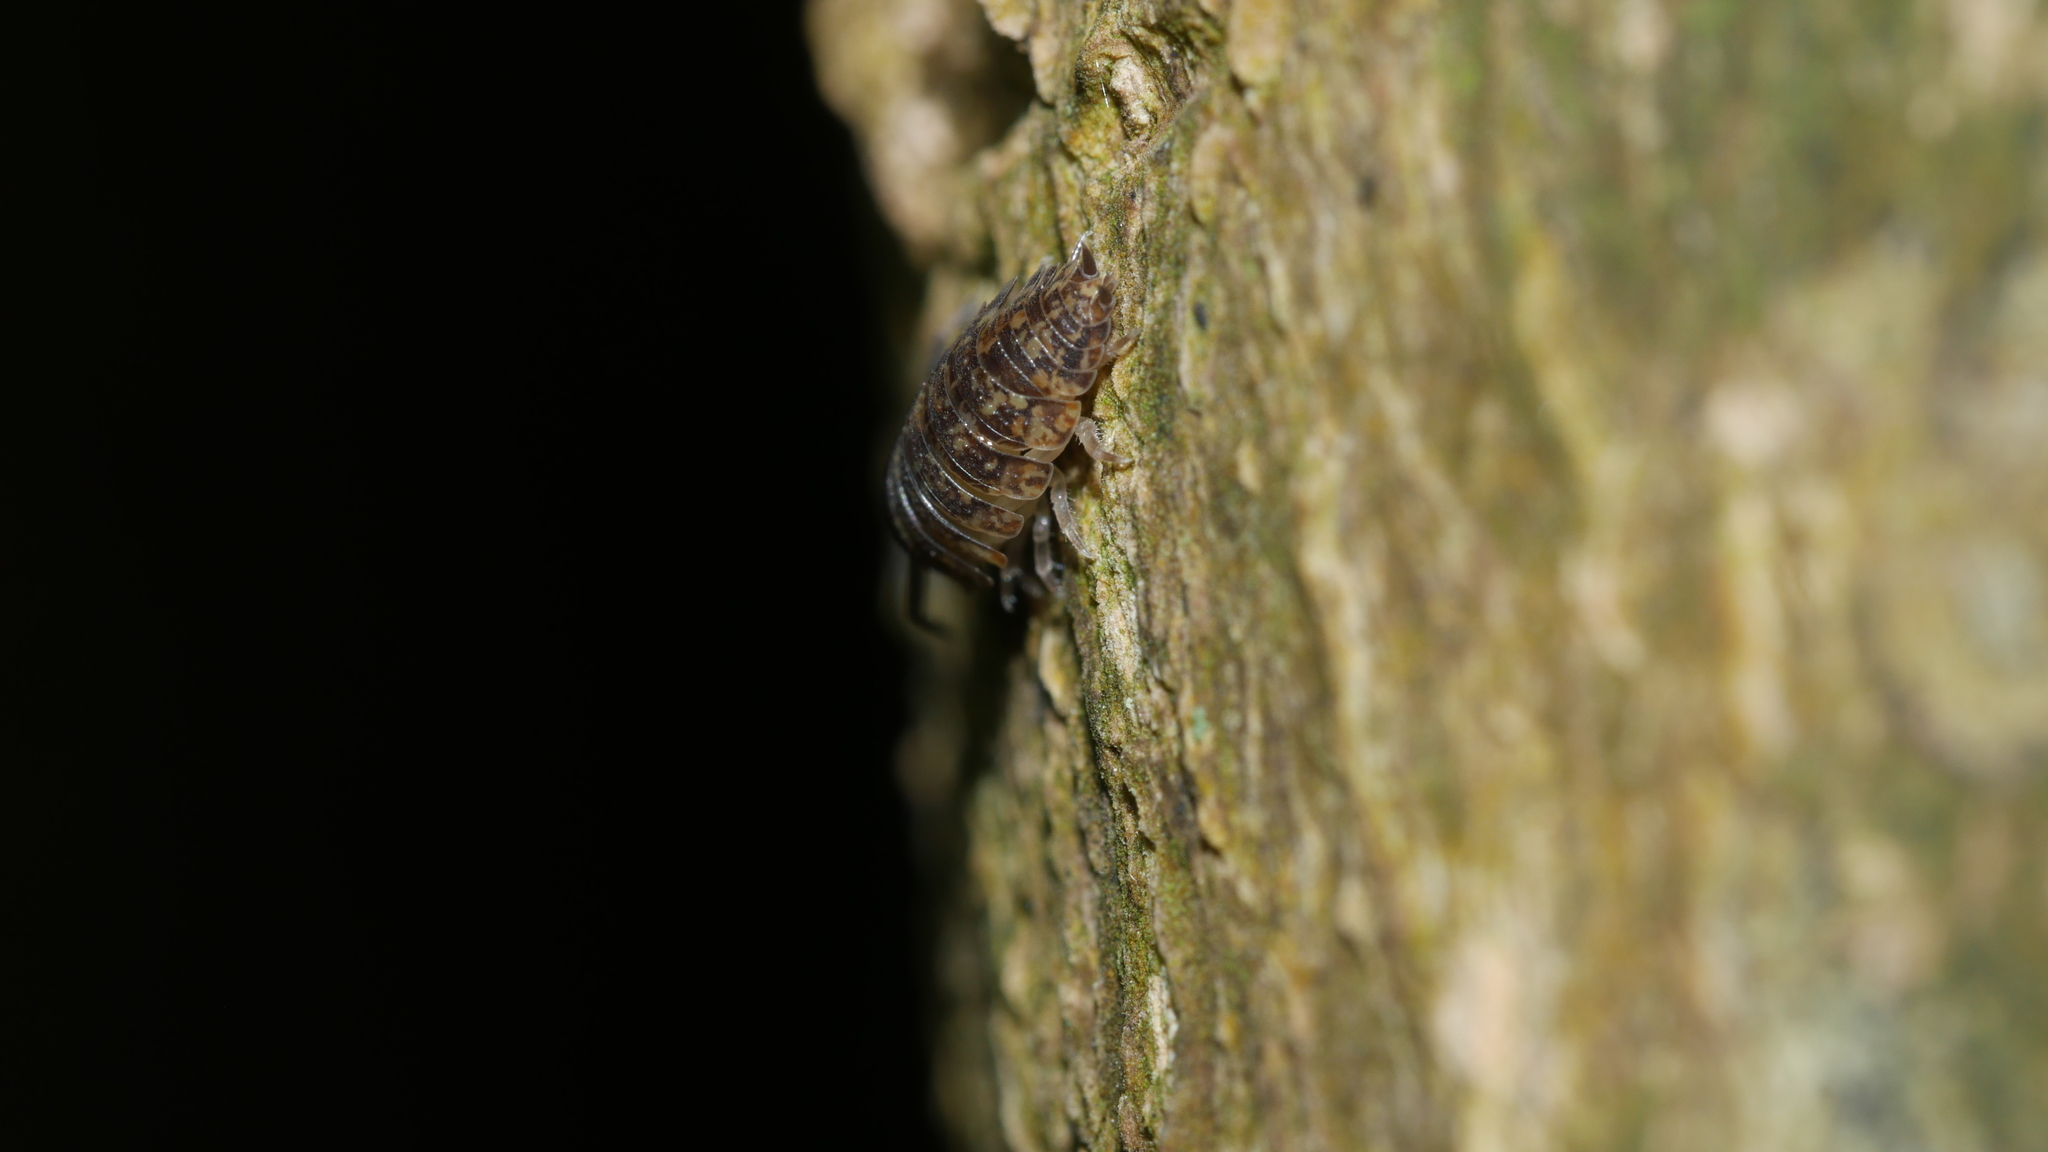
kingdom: Animalia
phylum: Arthropoda
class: Malacostraca
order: Isopoda
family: Porcellionidae
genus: Porcellio
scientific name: Porcellio scaber
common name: Common rough woodlouse
